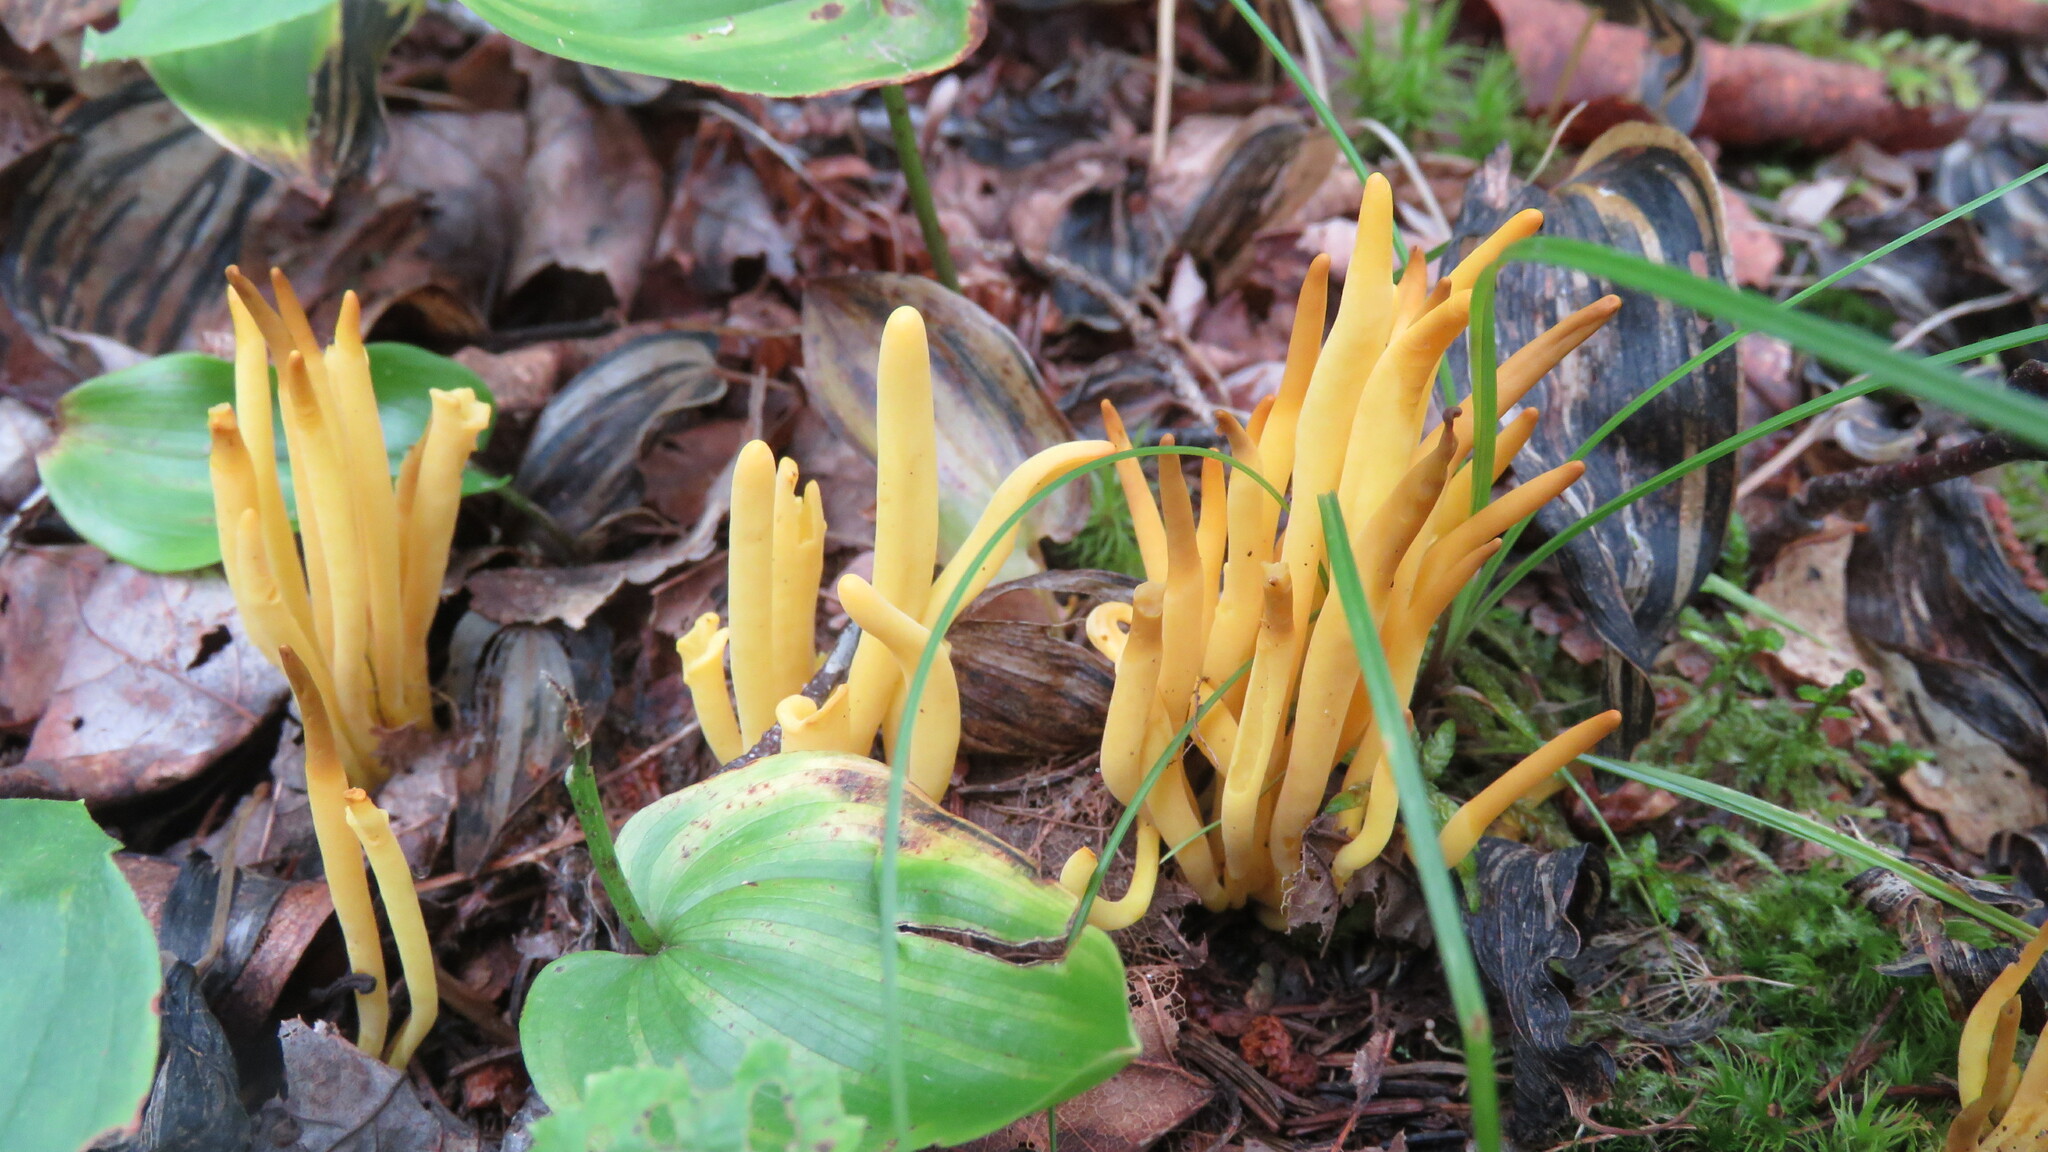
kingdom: Fungi
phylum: Basidiomycota
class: Agaricomycetes
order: Agaricales
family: Clavariaceae
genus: Clavulinopsis
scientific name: Clavulinopsis fusiformis
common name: Golden spindles
